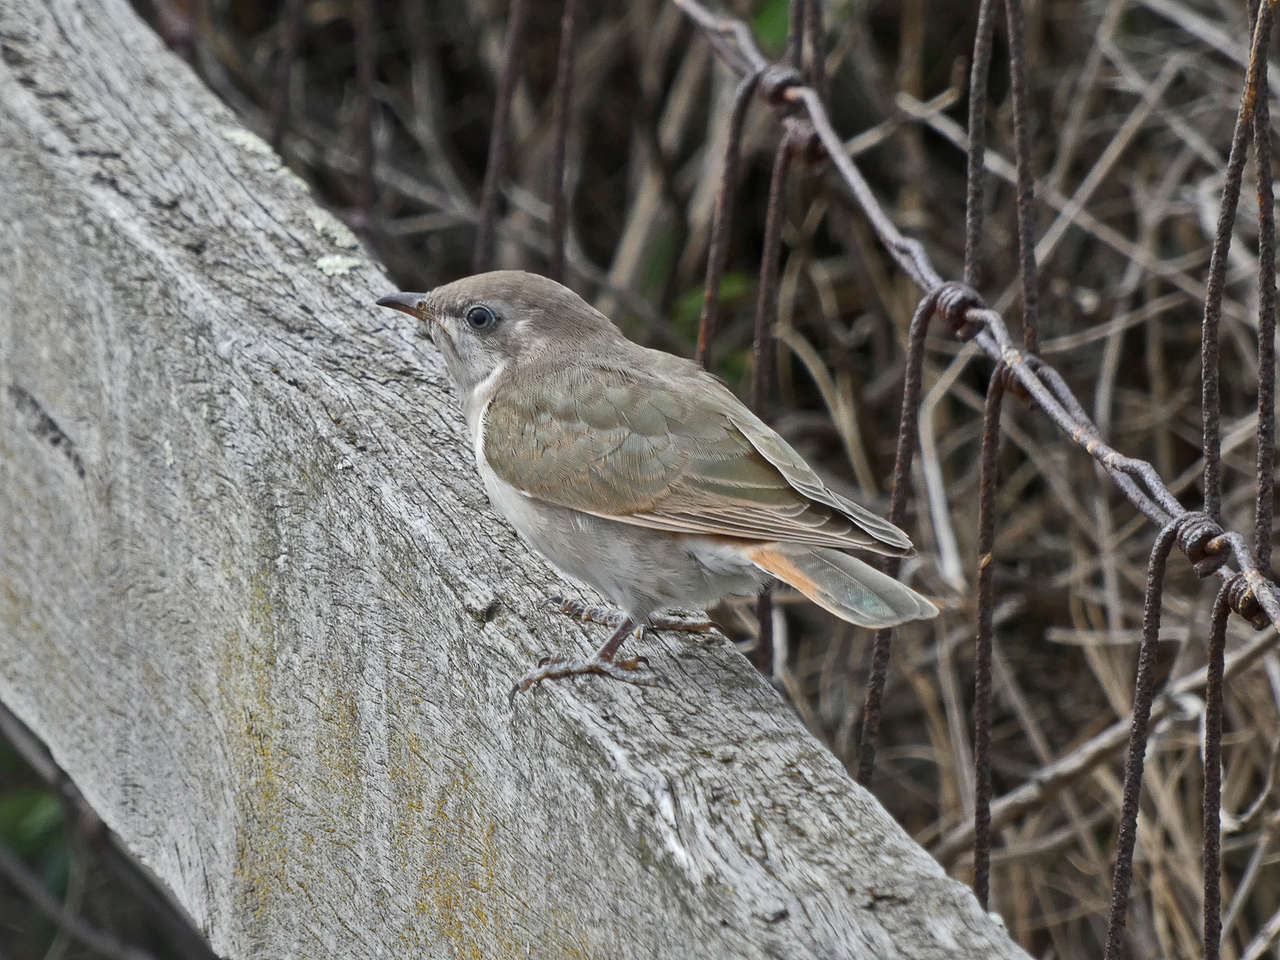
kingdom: Animalia
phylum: Chordata
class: Aves
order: Cuculiformes
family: Cuculidae
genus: Chrysococcyx
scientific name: Chrysococcyx basalis
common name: Horsfield's bronze cuckoo
